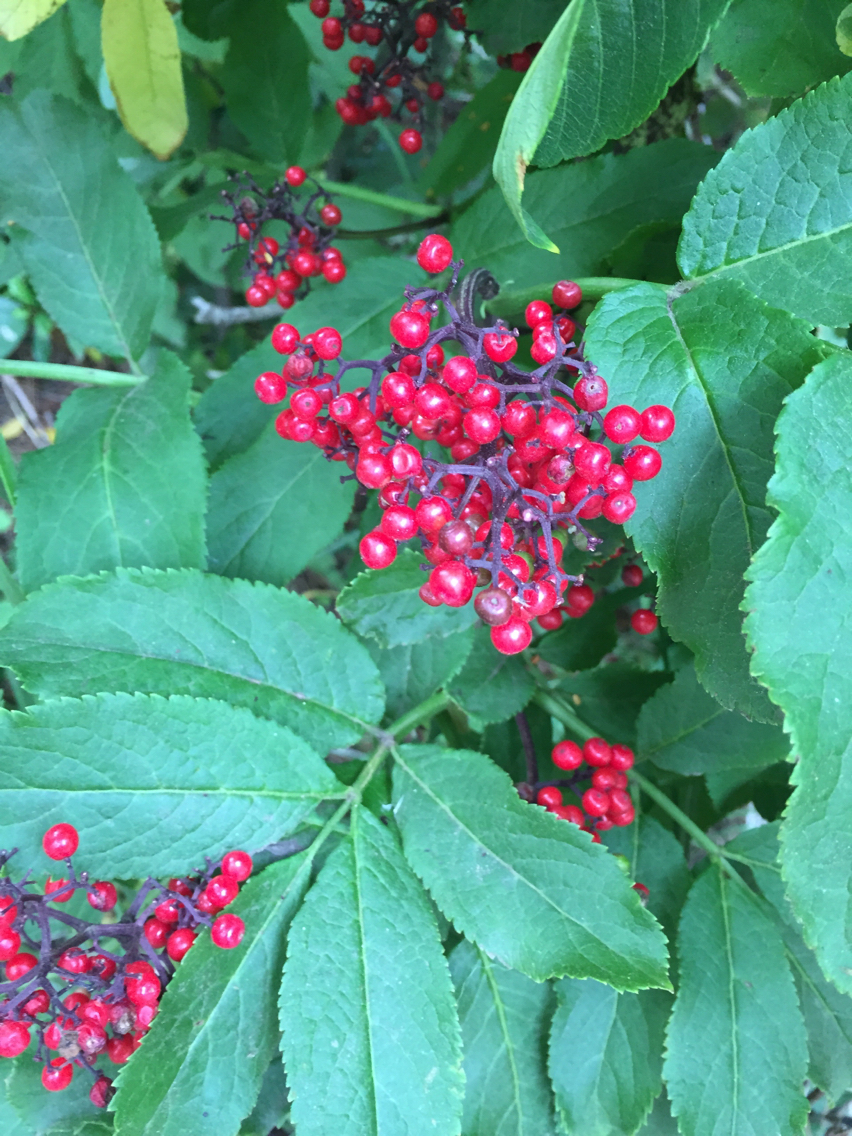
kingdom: Plantae
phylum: Tracheophyta
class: Magnoliopsida
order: Dipsacales
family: Viburnaceae
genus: Sambucus
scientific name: Sambucus racemosa
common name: Red-berried elder
